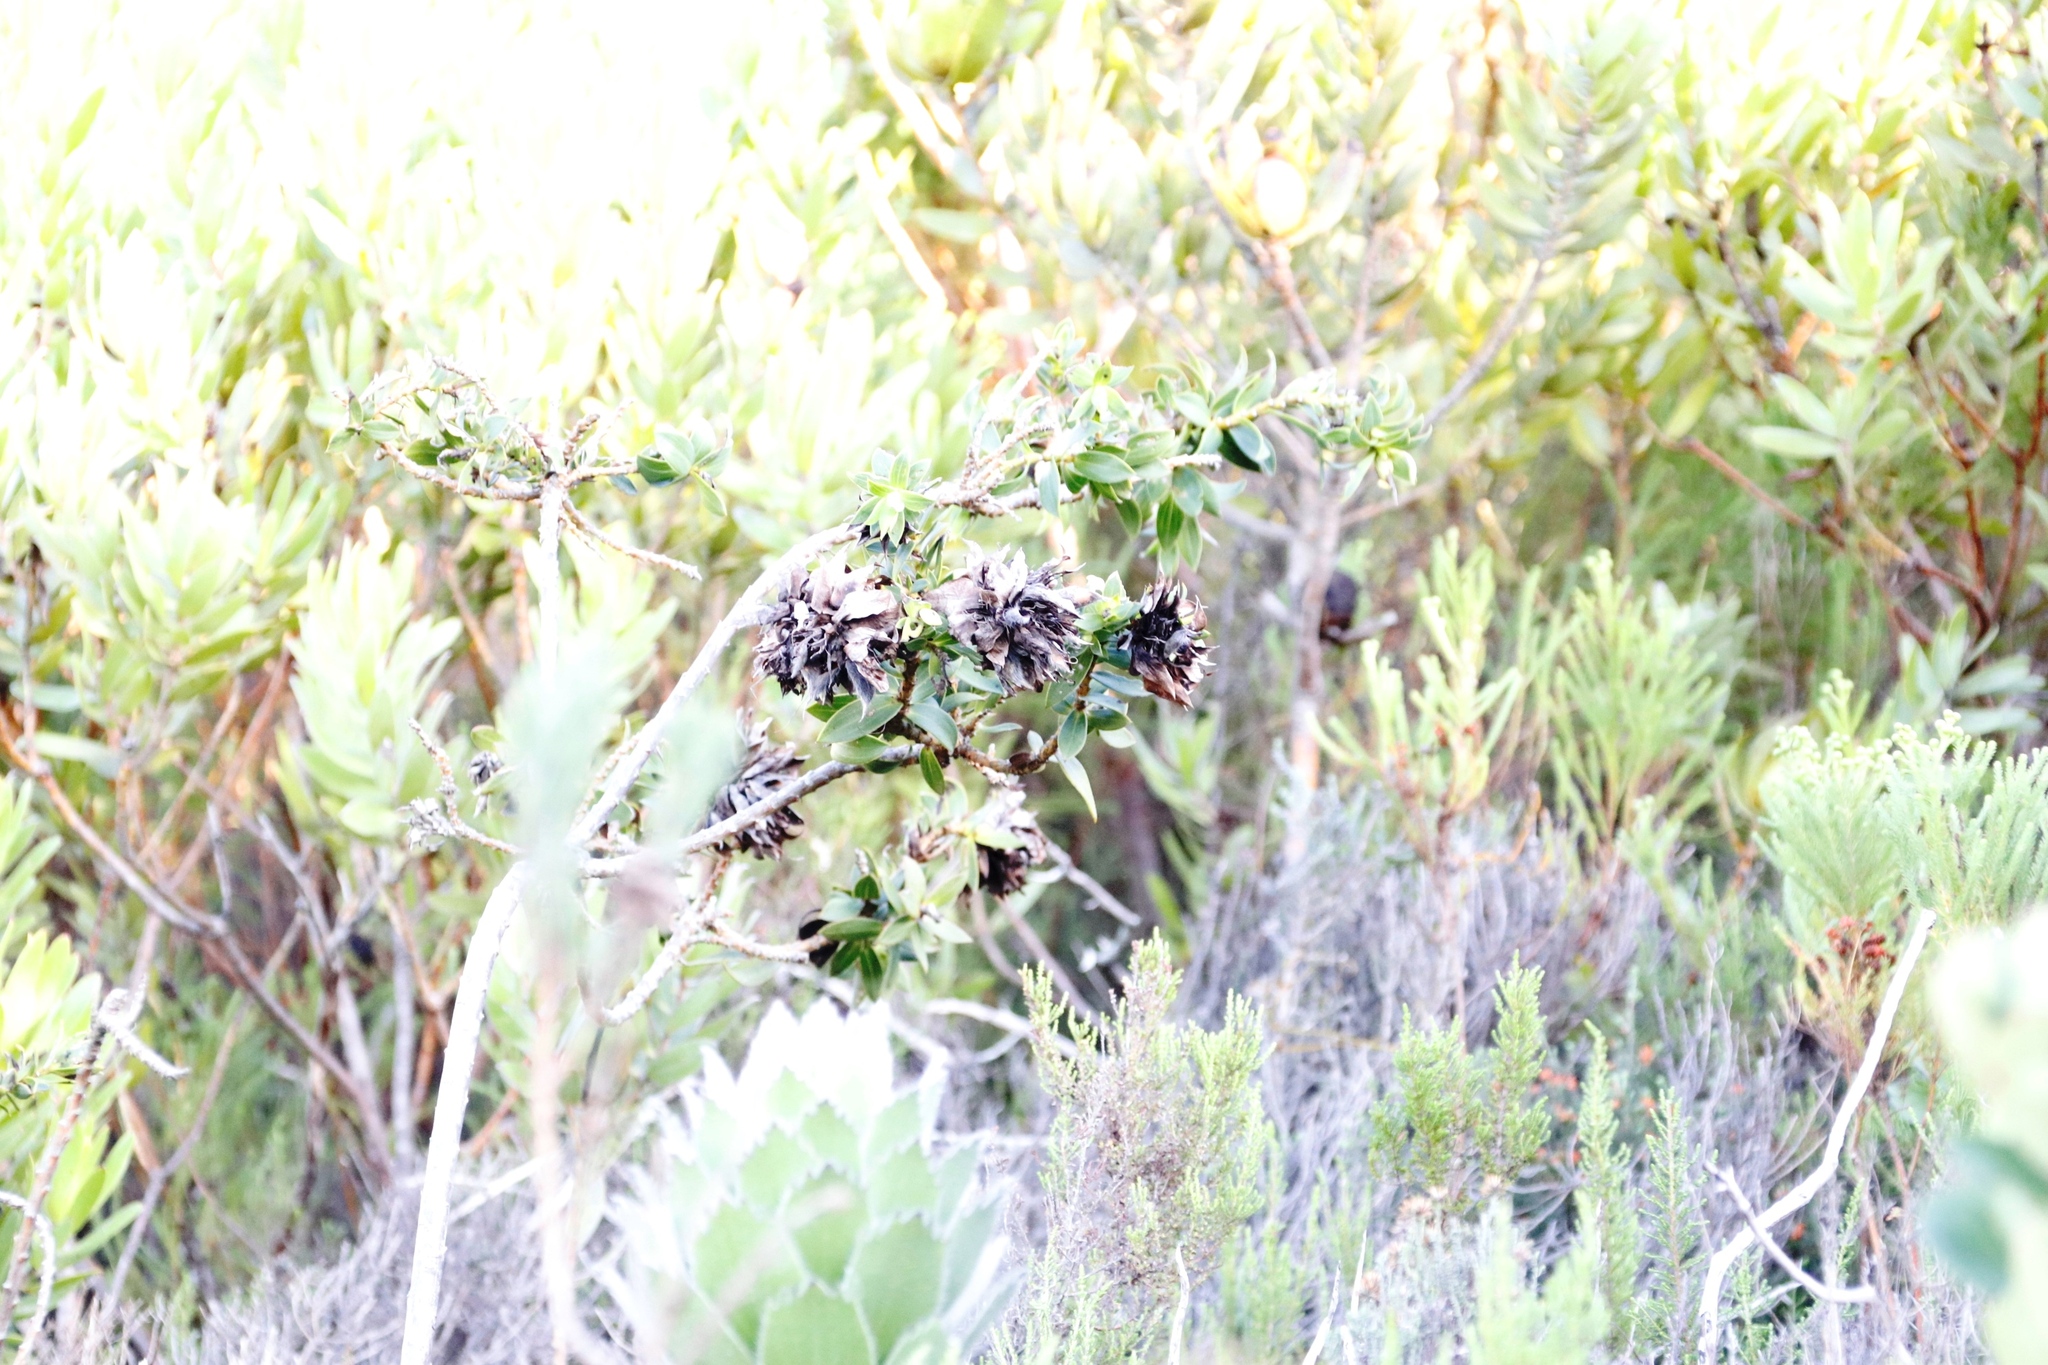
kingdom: Plantae
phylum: Tracheophyta
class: Magnoliopsida
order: Fabales
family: Fabaceae
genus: Liparia
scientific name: Liparia splendens
